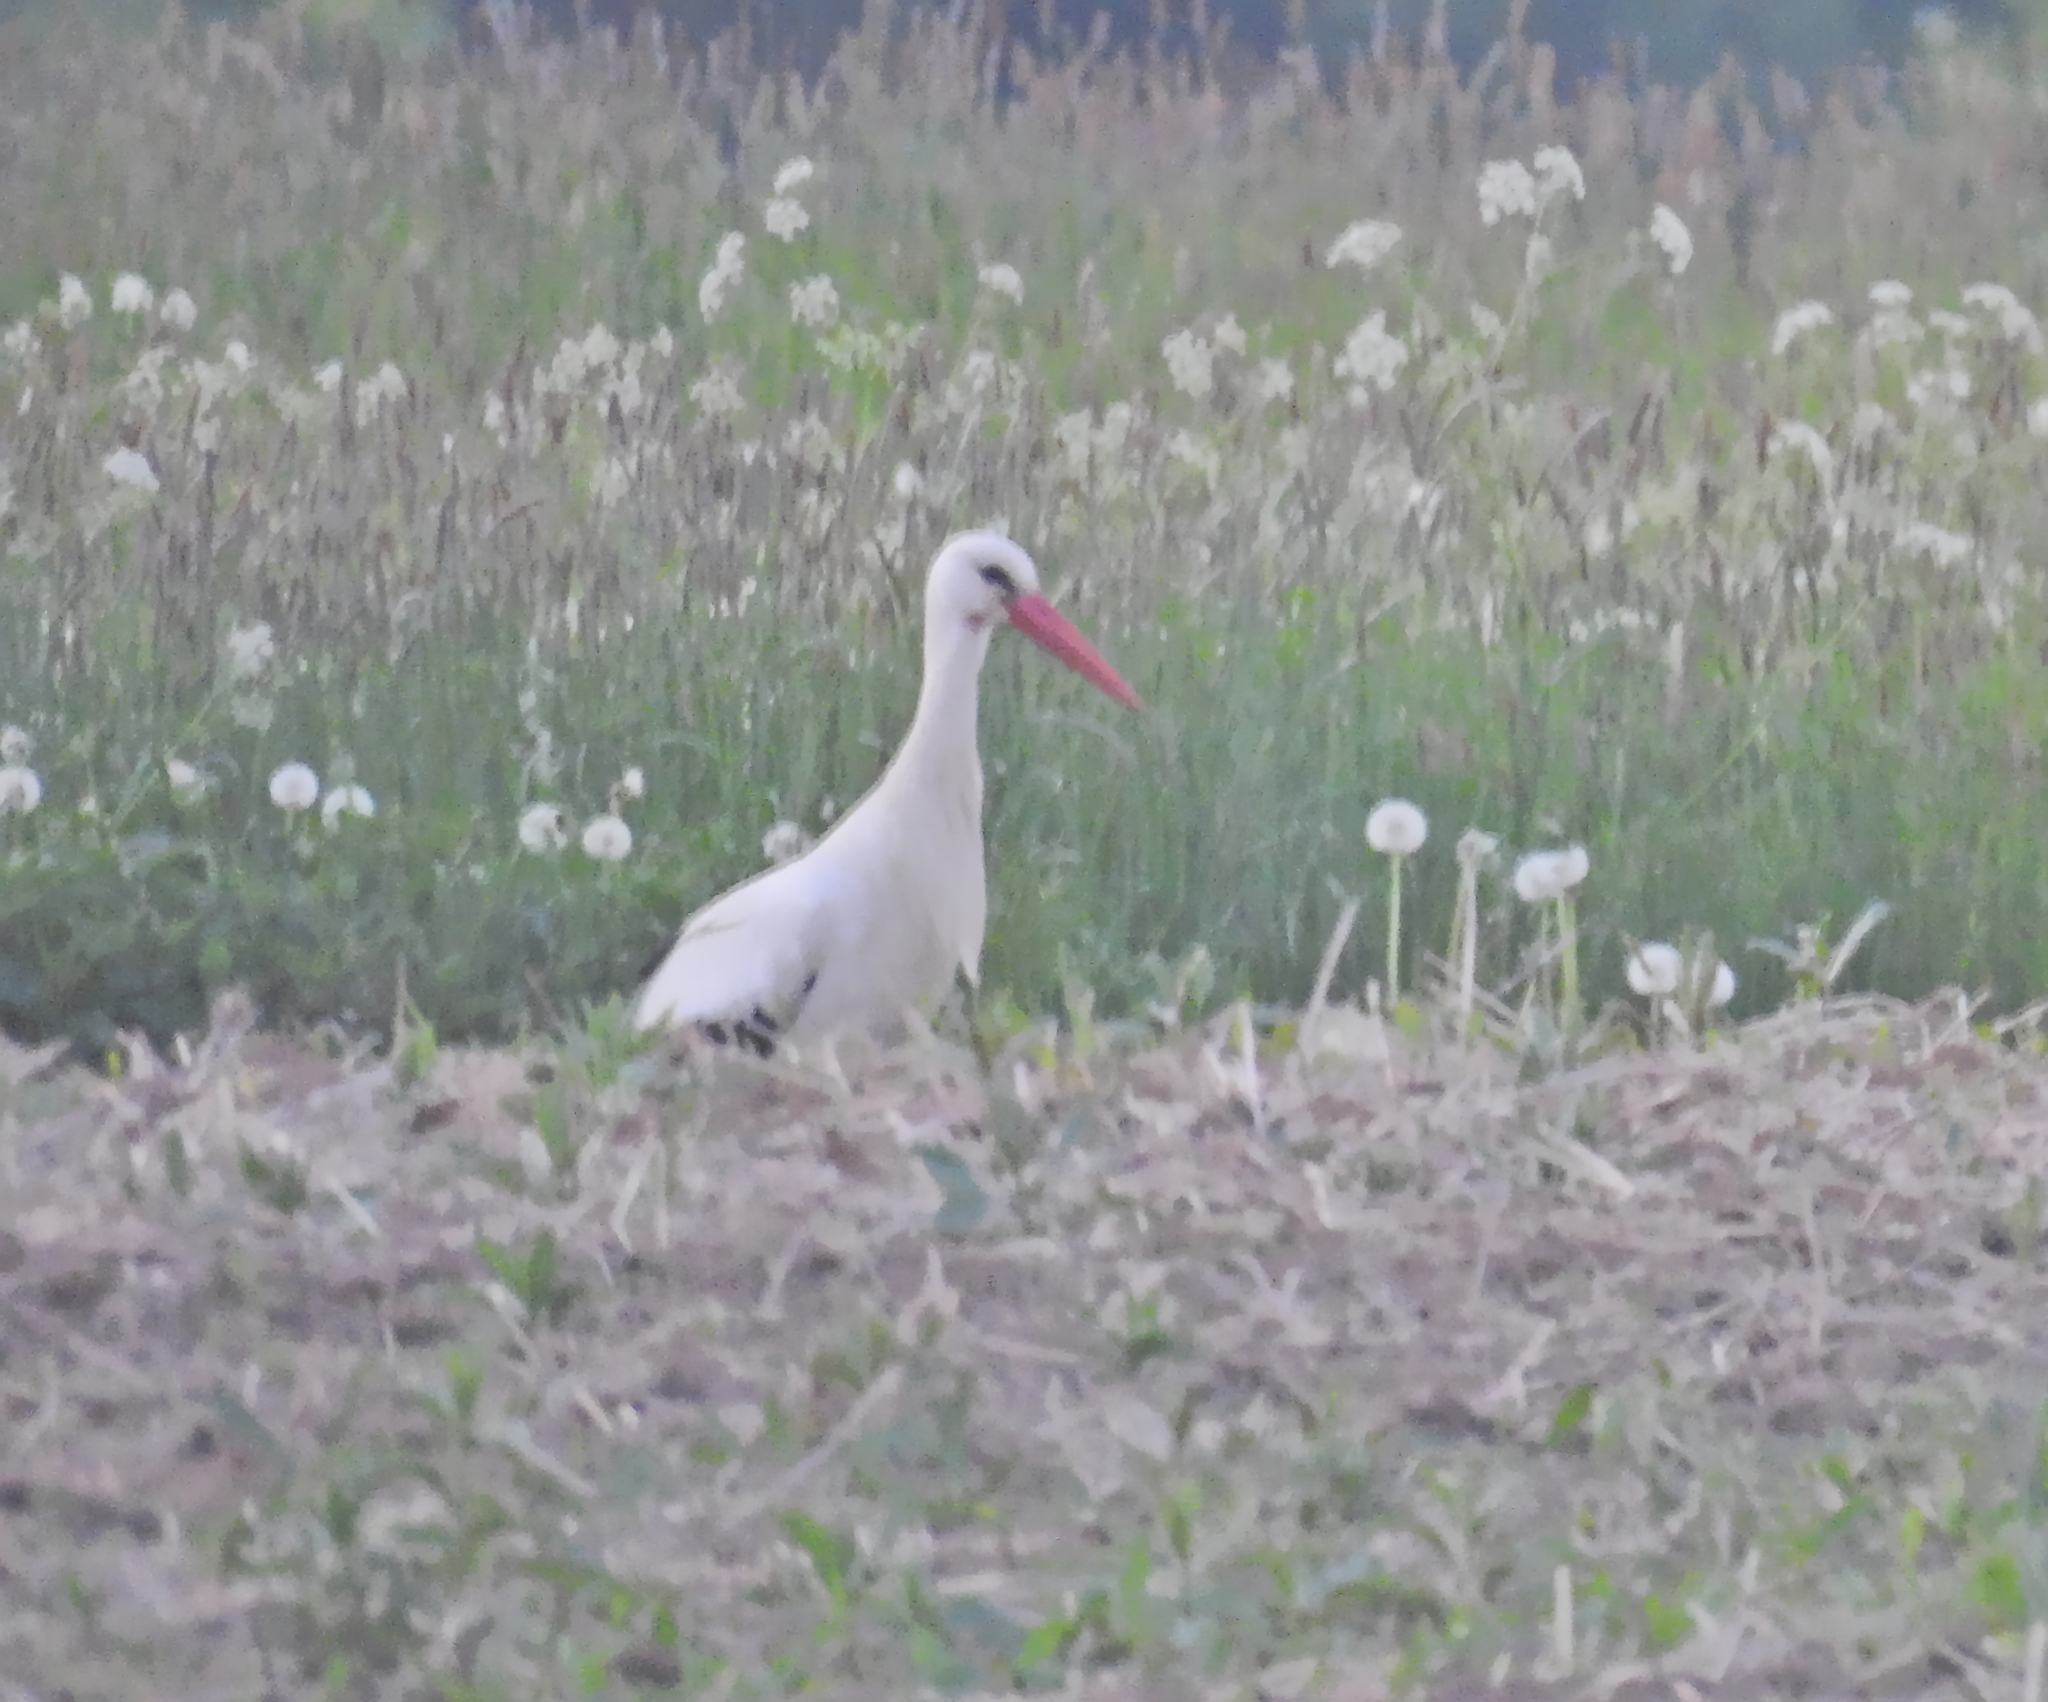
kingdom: Animalia
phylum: Chordata
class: Aves
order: Ciconiiformes
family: Ciconiidae
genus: Ciconia
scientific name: Ciconia ciconia
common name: White stork
